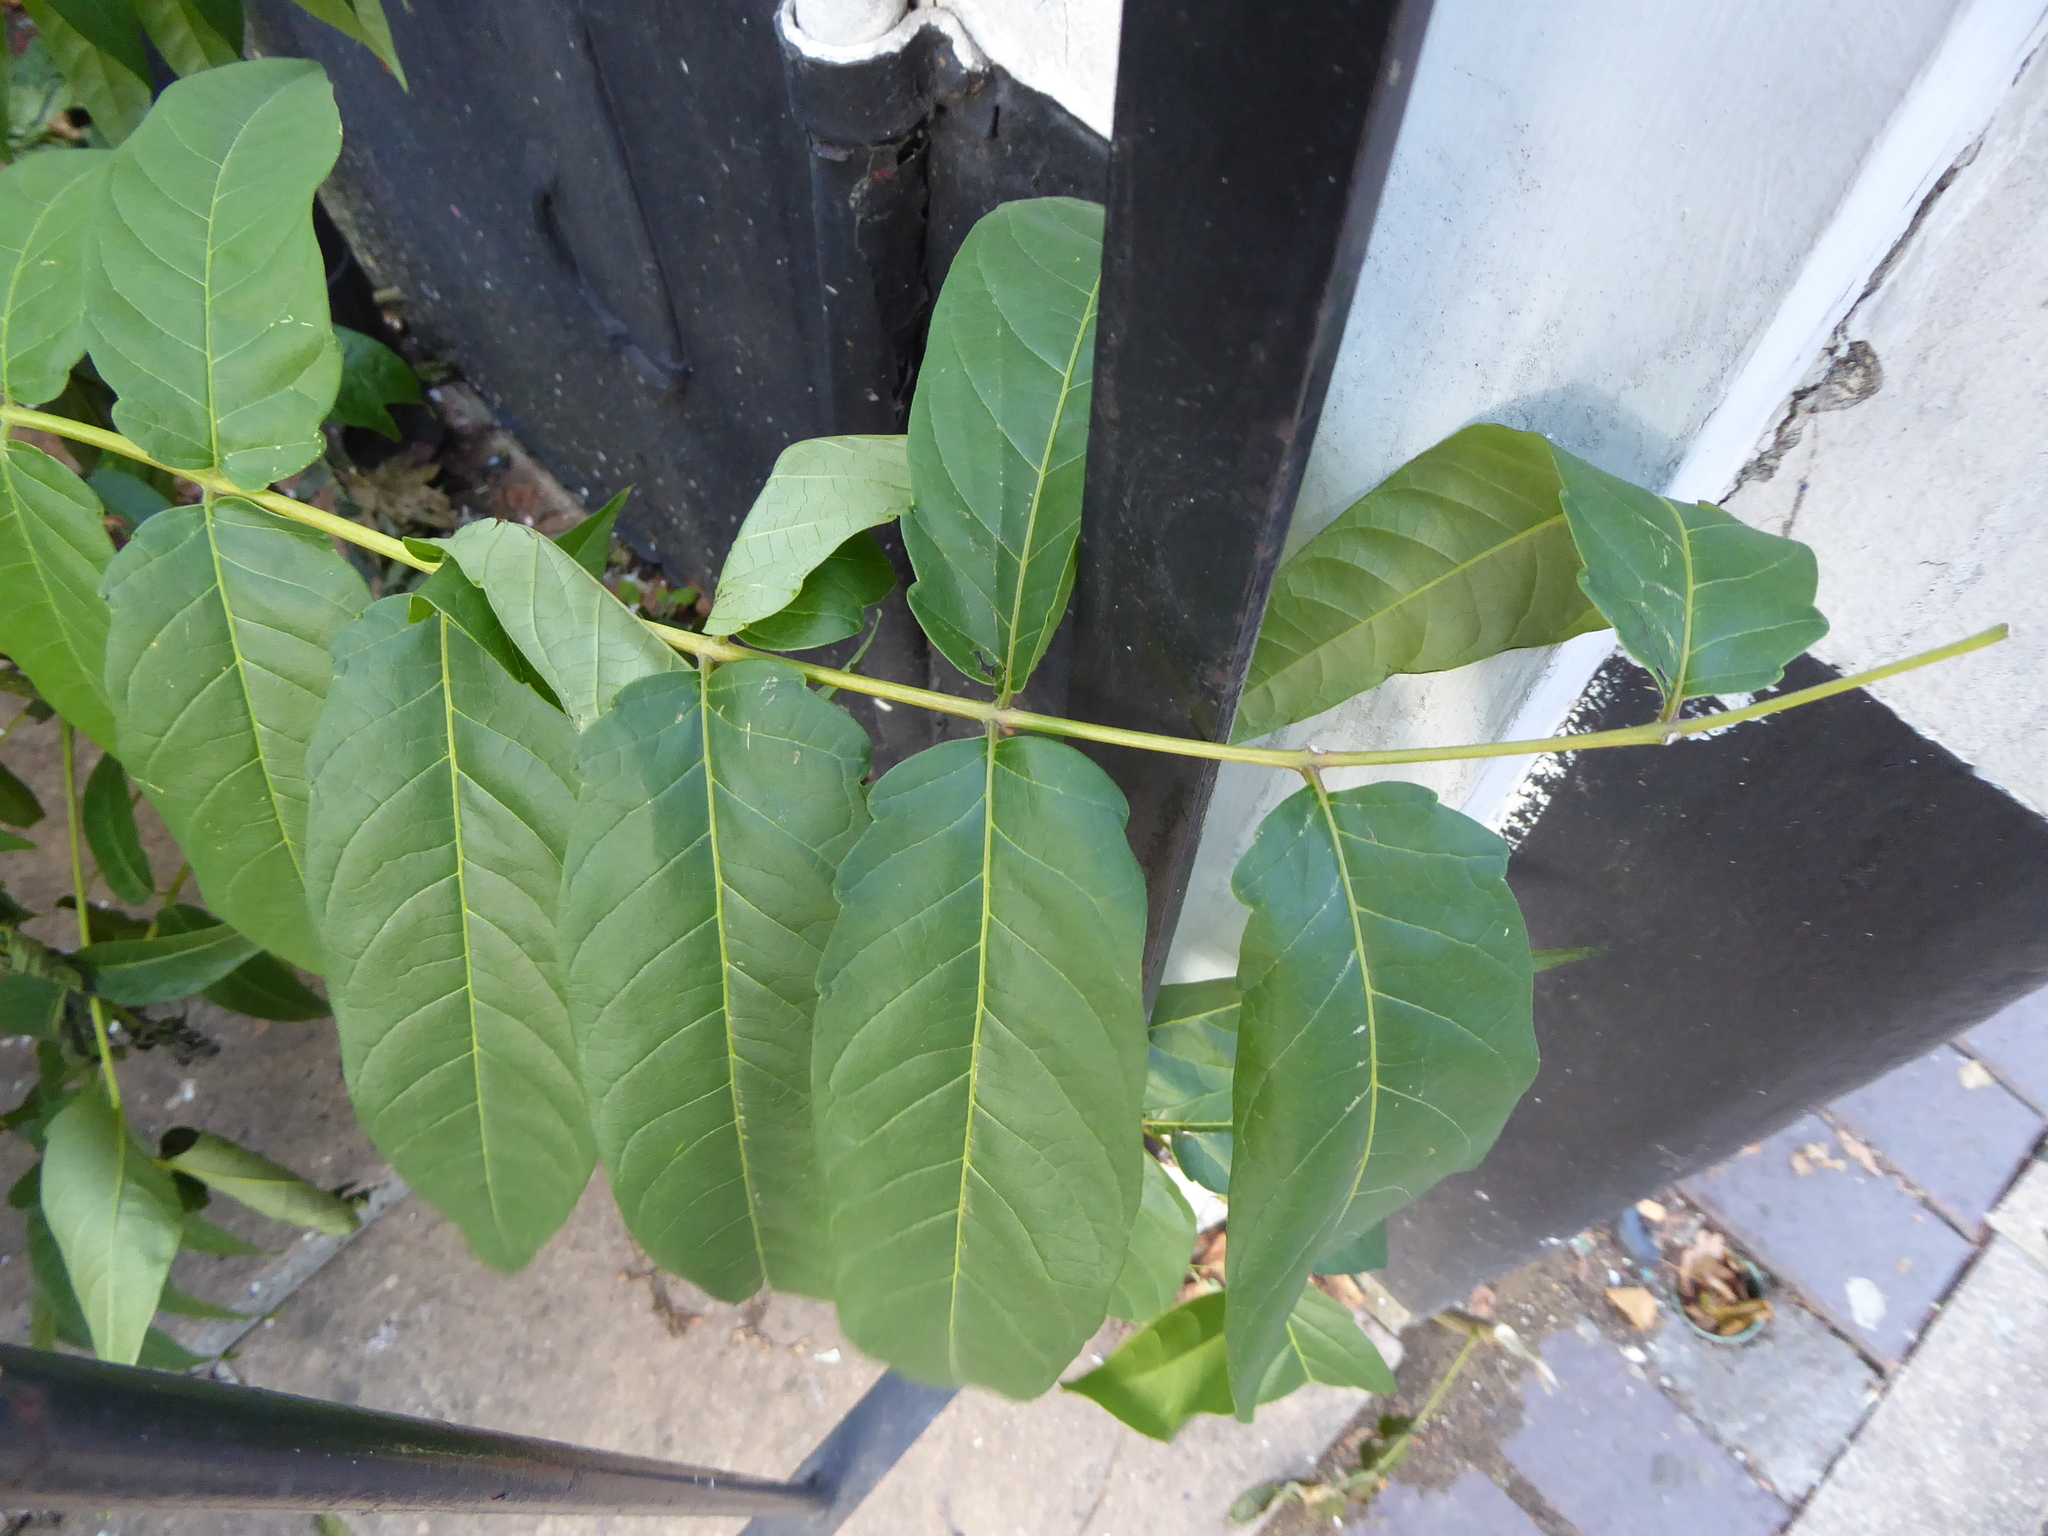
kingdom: Plantae
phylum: Tracheophyta
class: Magnoliopsida
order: Sapindales
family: Simaroubaceae
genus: Ailanthus
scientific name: Ailanthus altissima
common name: Tree-of-heaven
